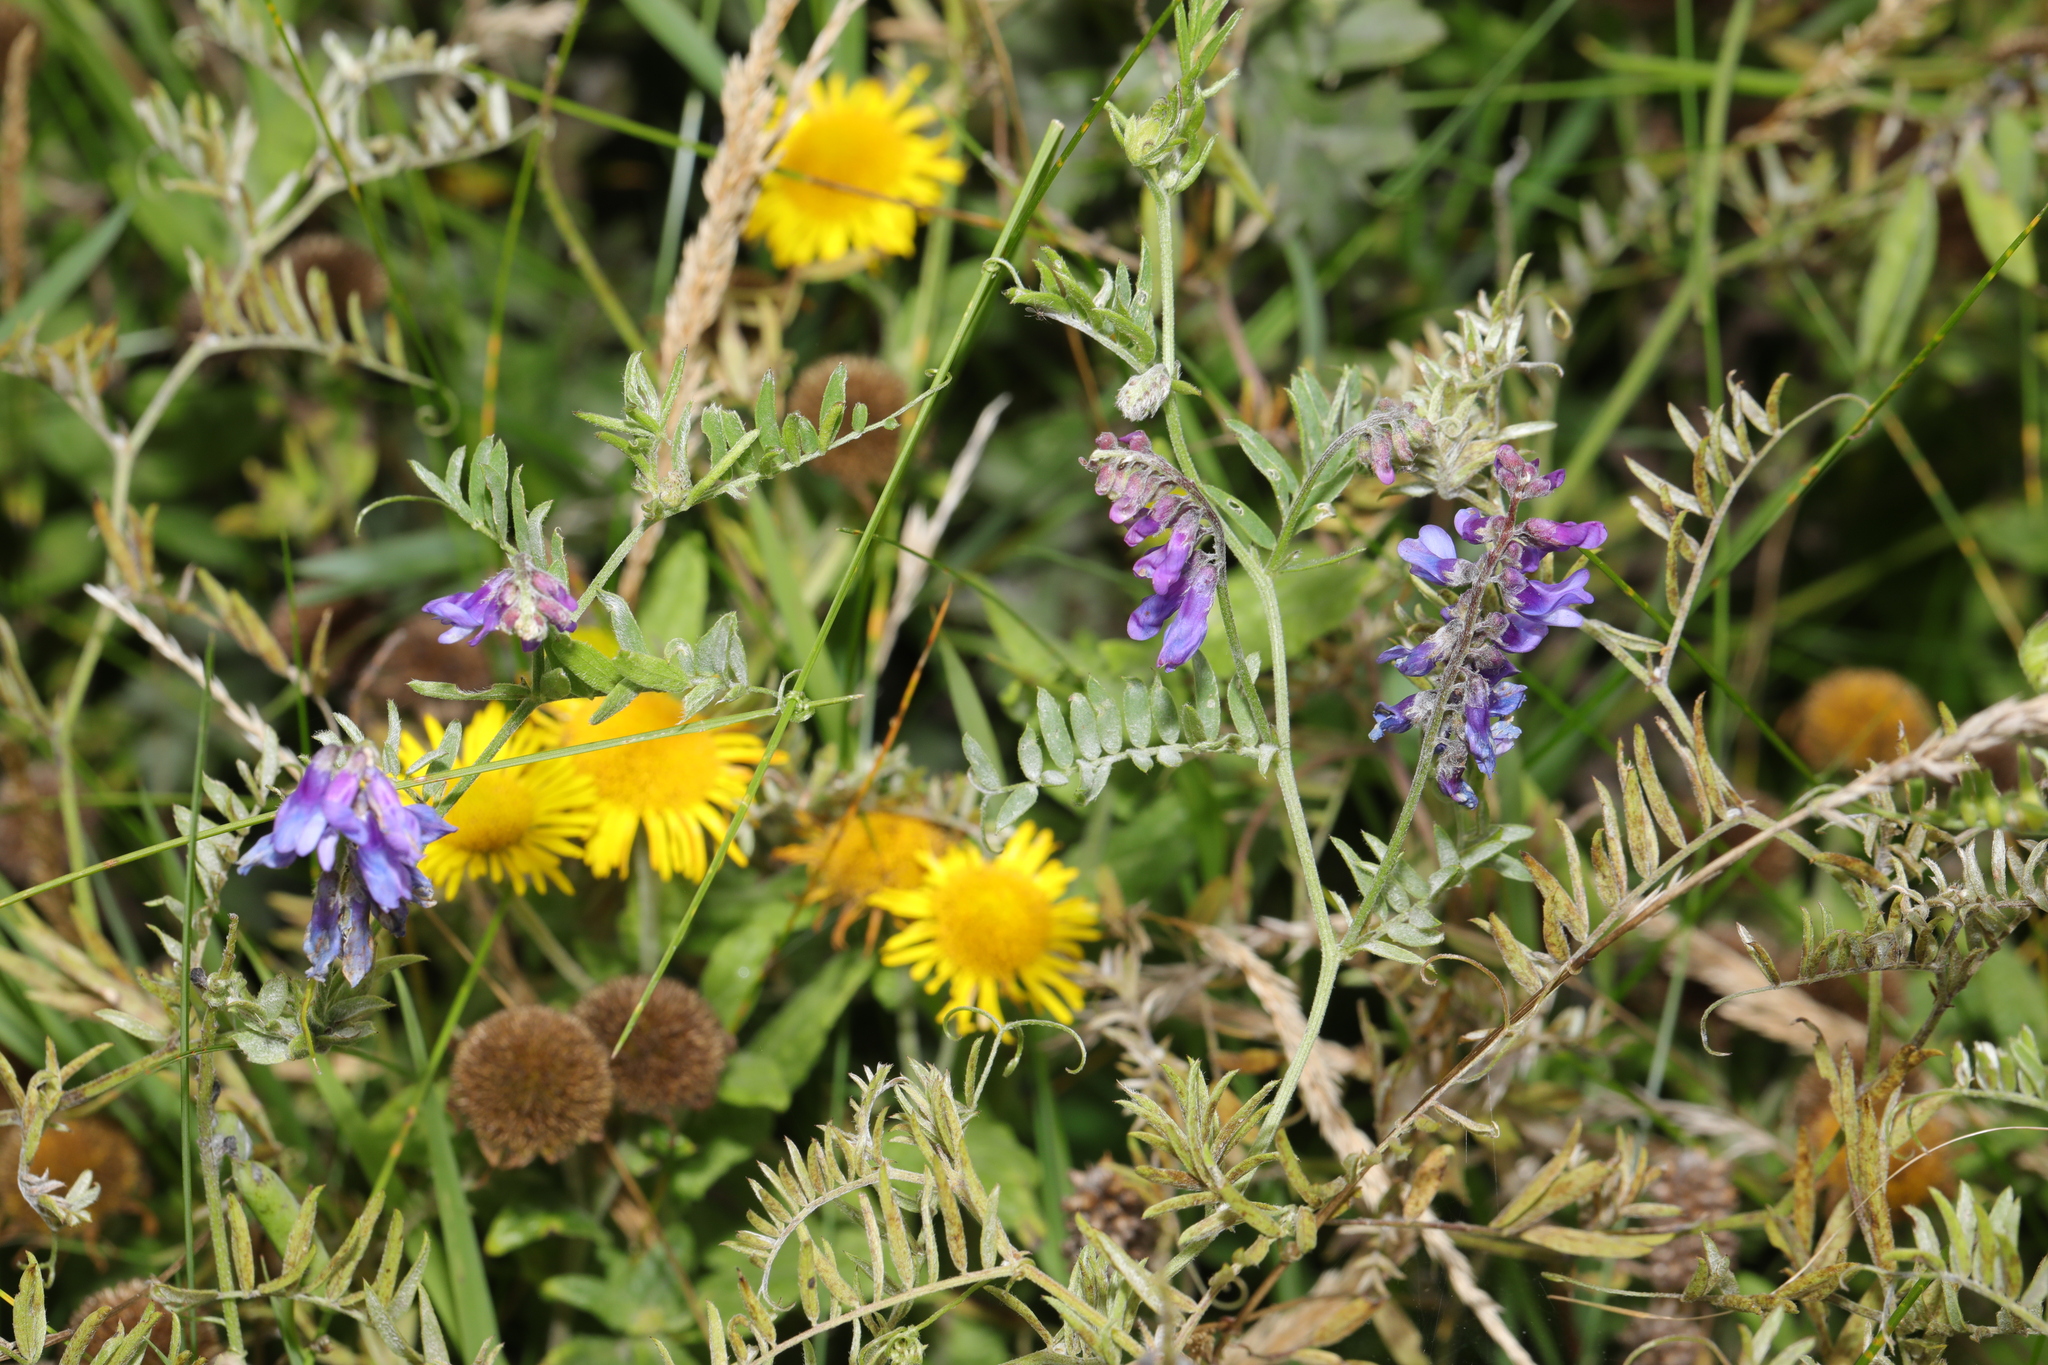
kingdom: Plantae
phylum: Tracheophyta
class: Magnoliopsida
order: Fabales
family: Fabaceae
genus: Vicia
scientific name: Vicia cracca
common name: Bird vetch
